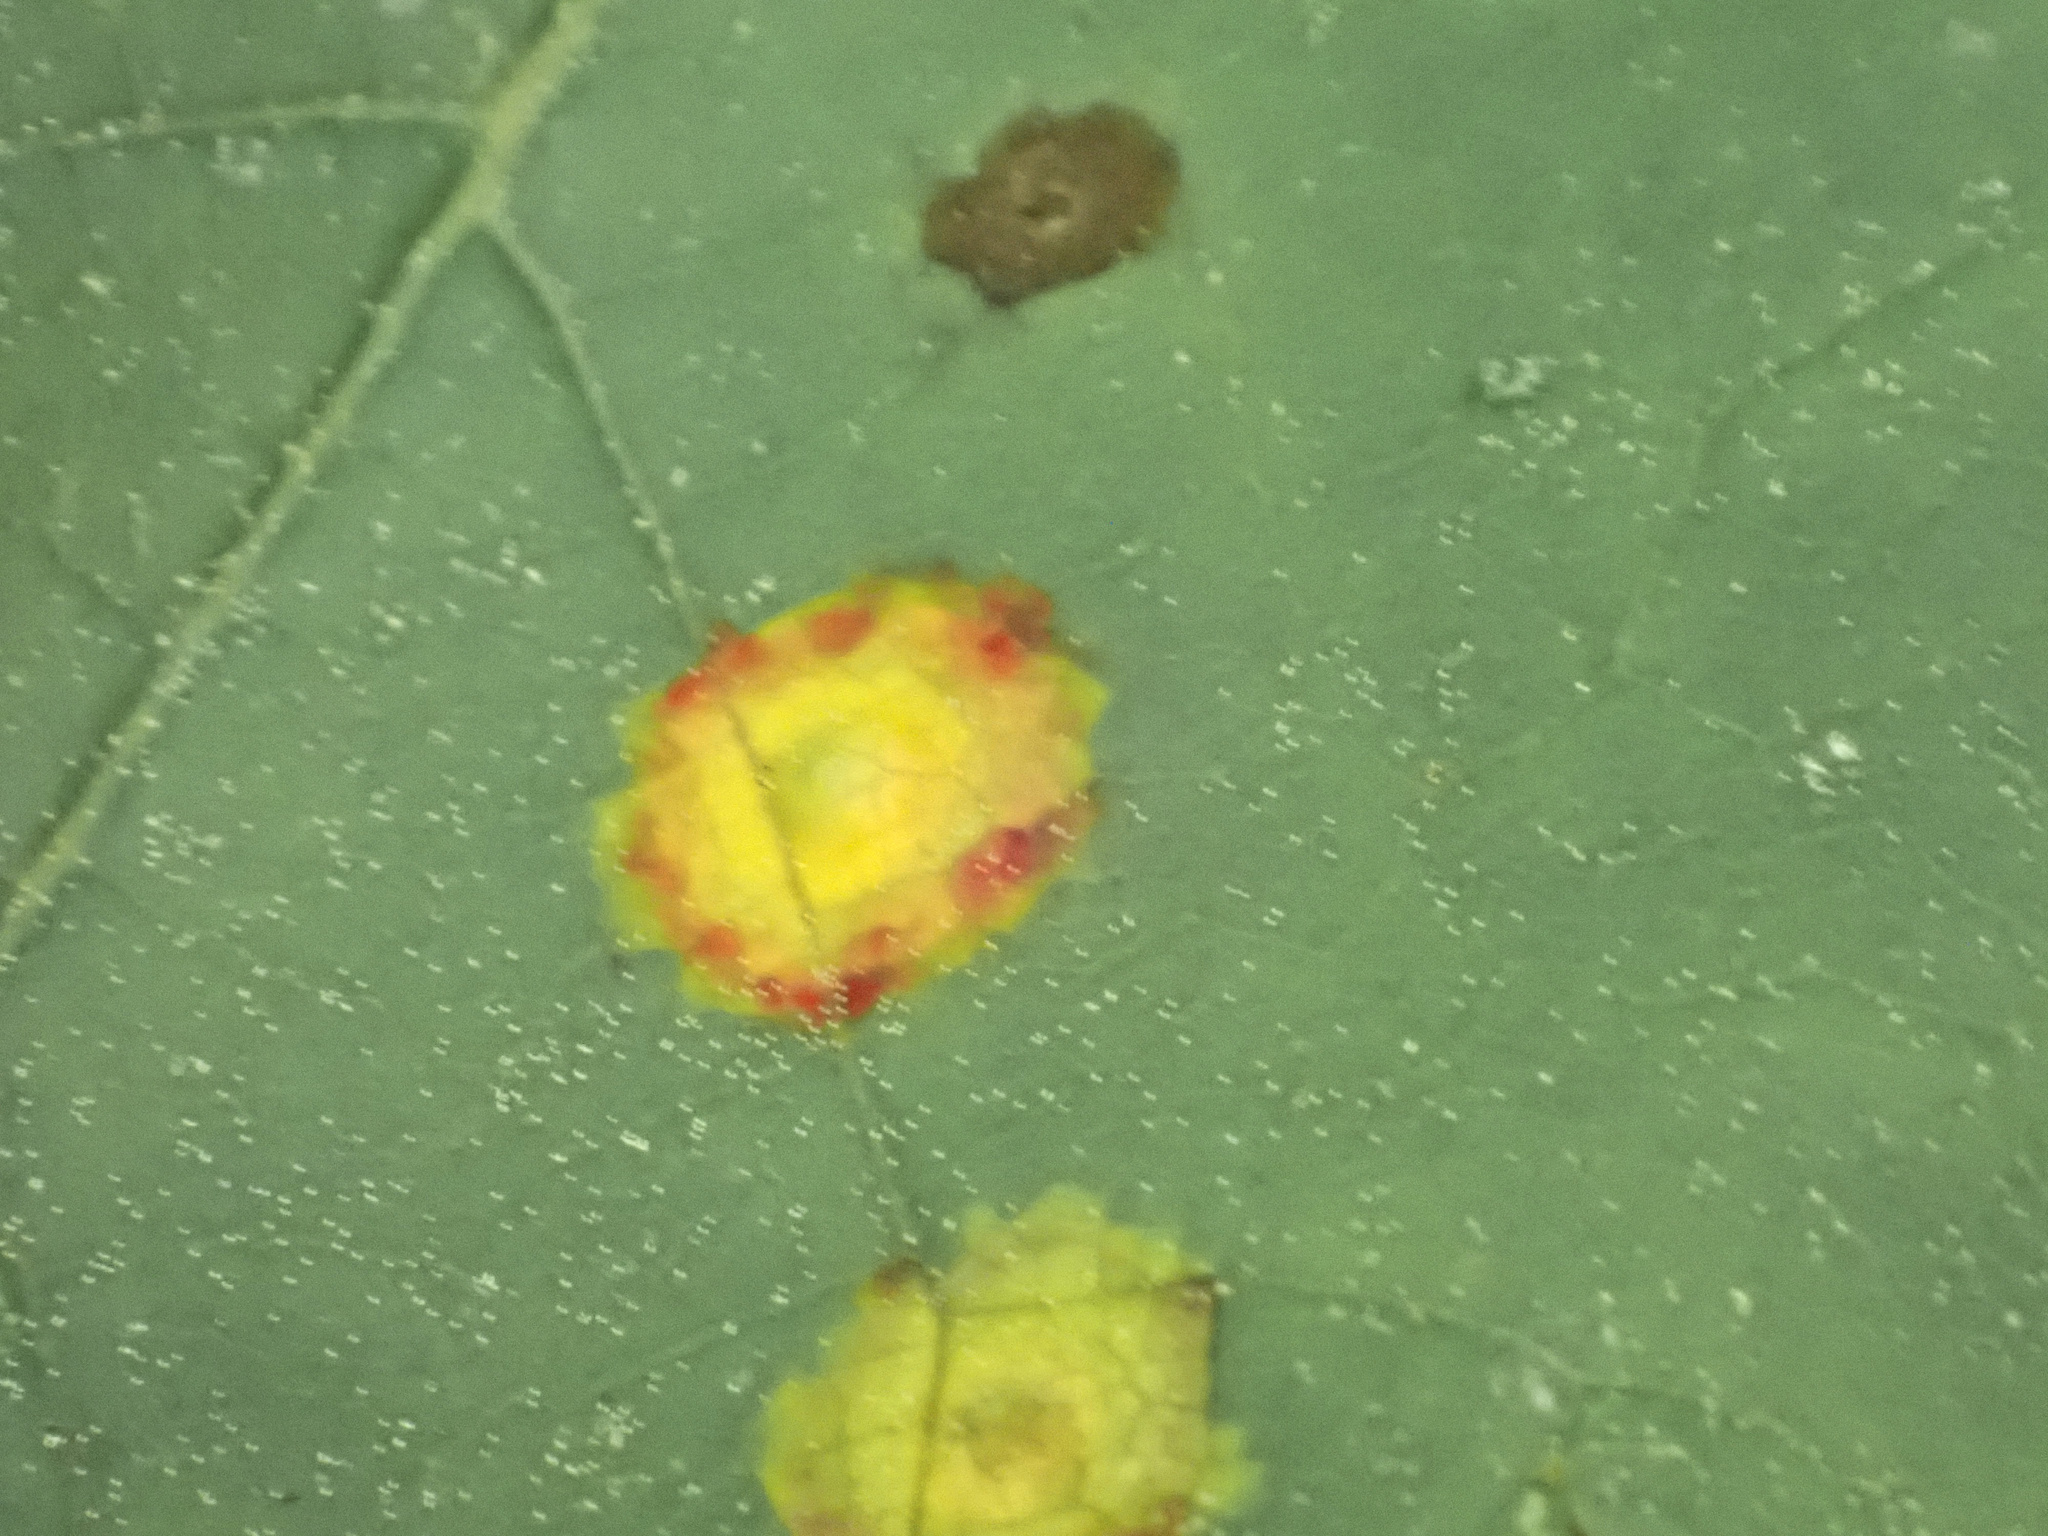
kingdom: Animalia
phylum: Arthropoda
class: Insecta
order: Diptera
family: Cecidomyiidae
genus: Acericecis
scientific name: Acericecis ocellaris
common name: Ocellate gall midge
